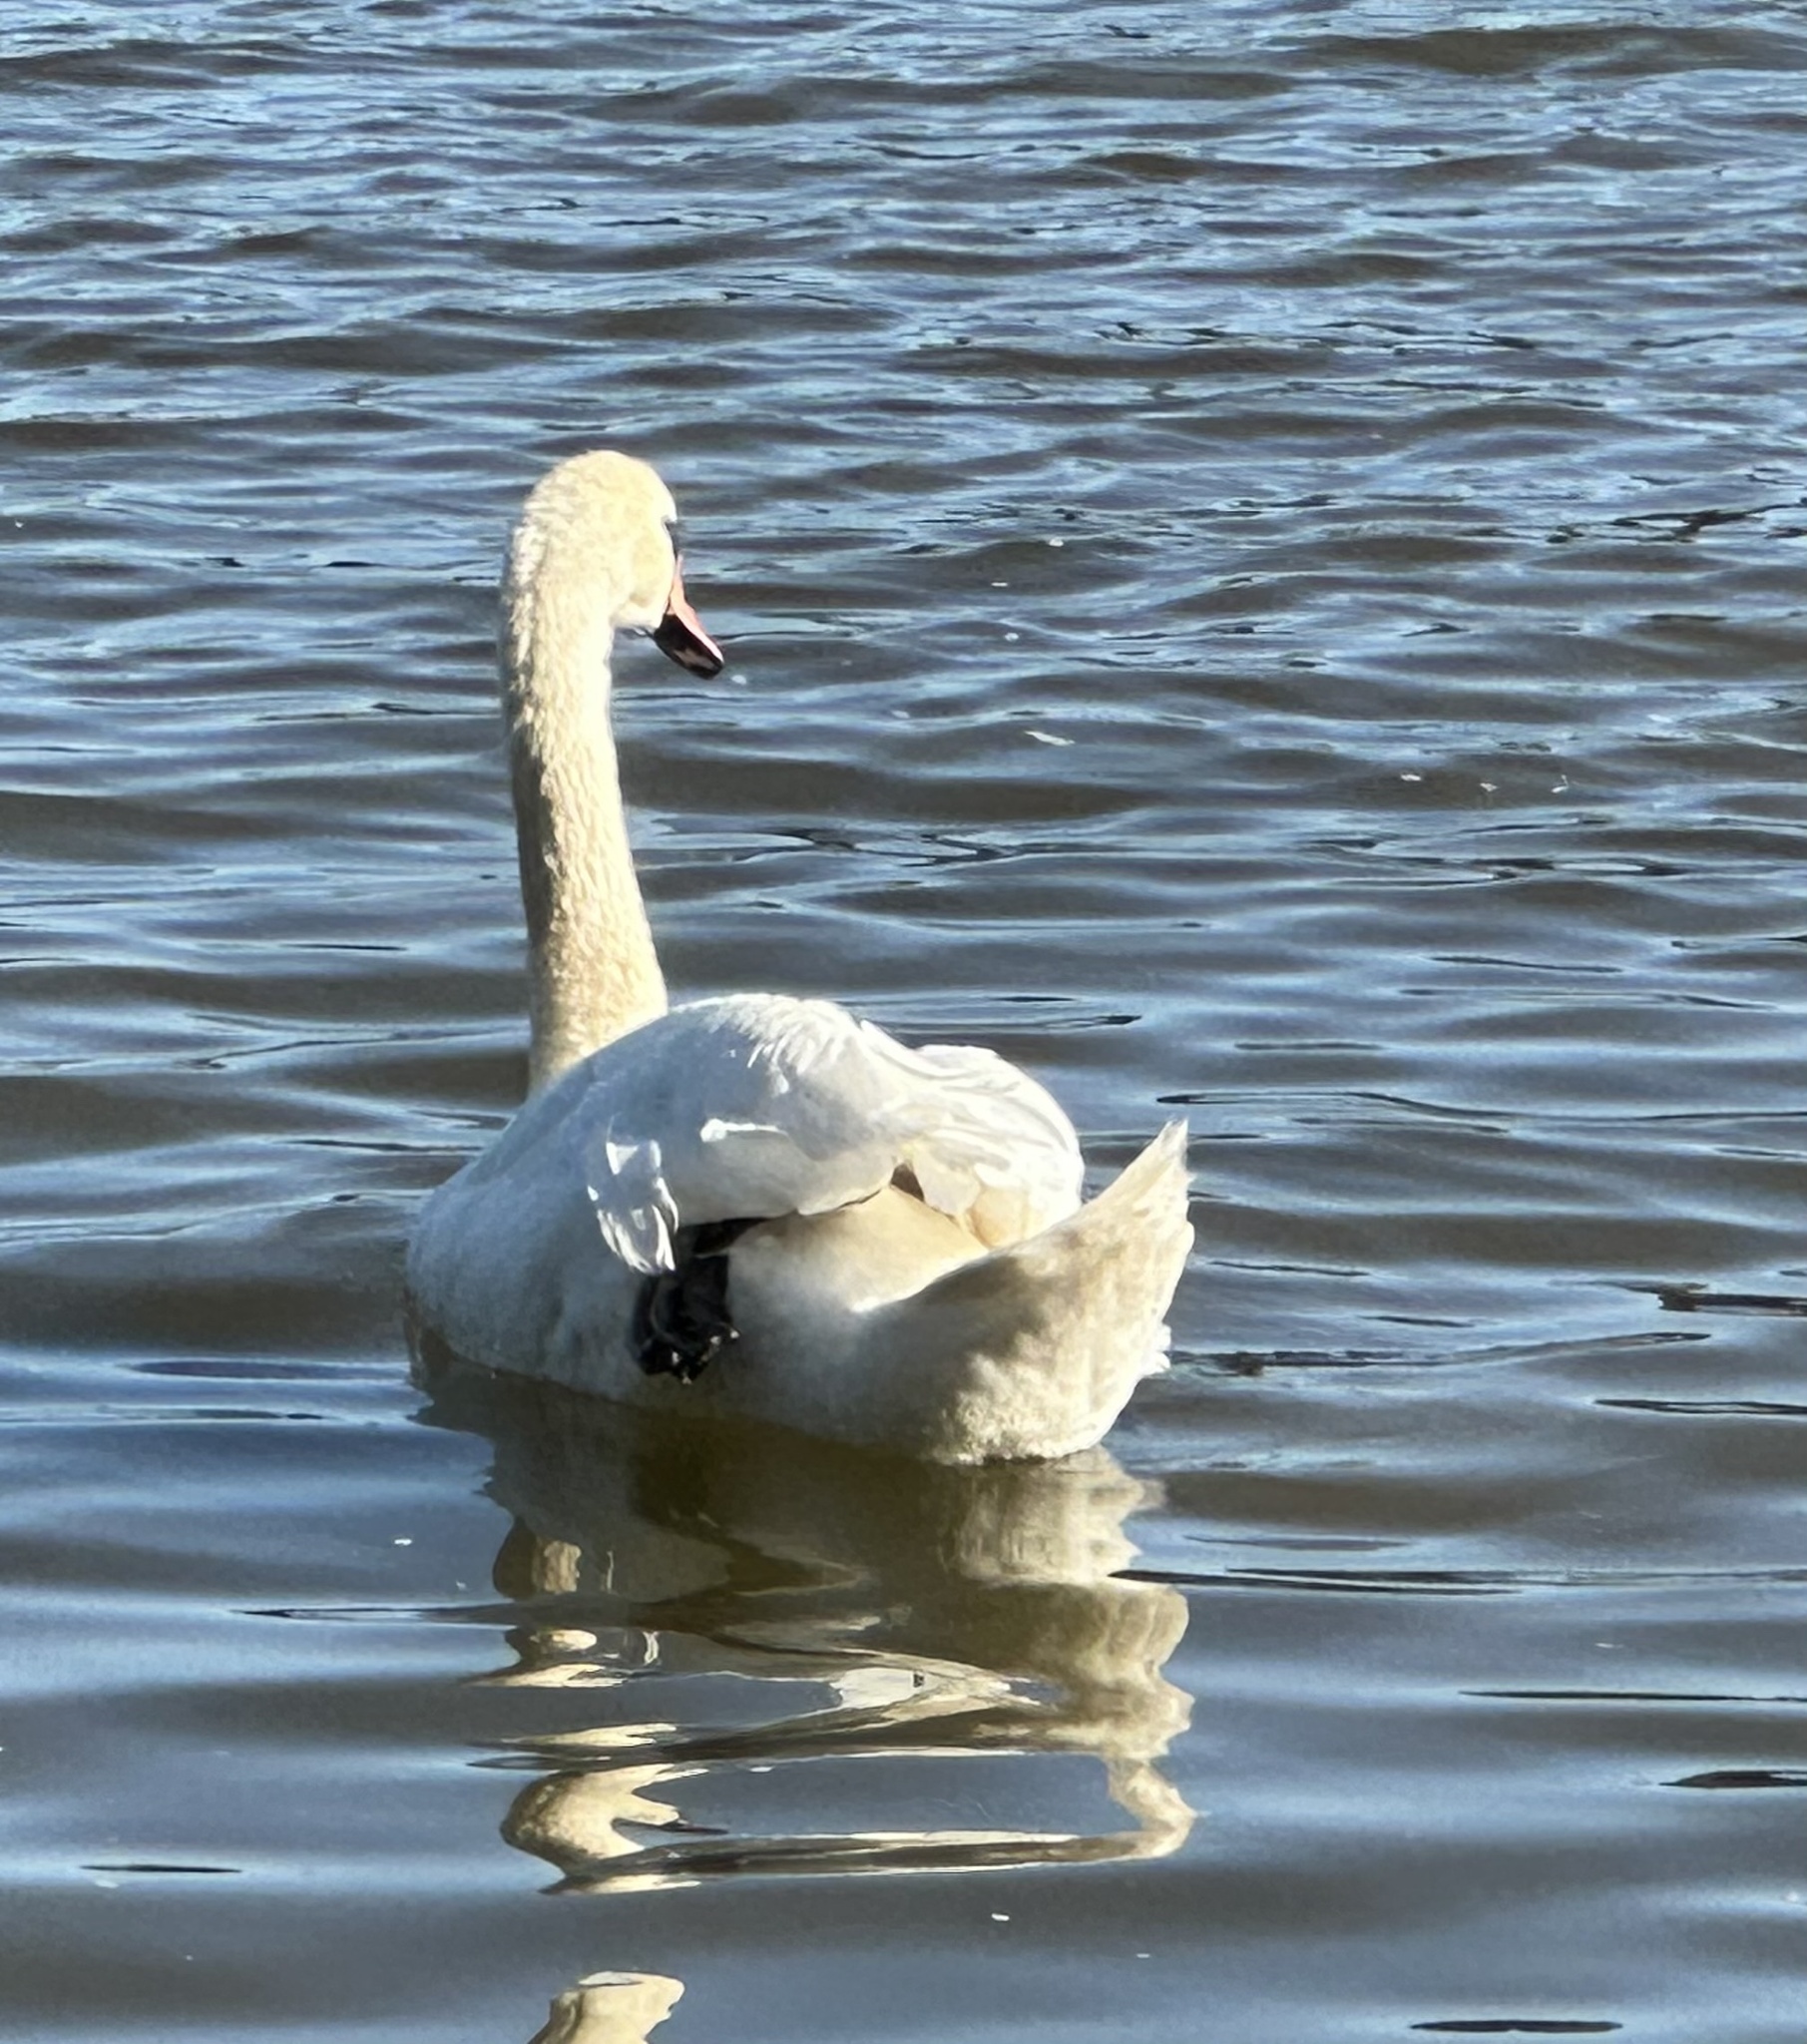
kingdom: Animalia
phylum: Chordata
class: Aves
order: Anseriformes
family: Anatidae
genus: Cygnus
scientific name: Cygnus olor
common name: Mute swan
